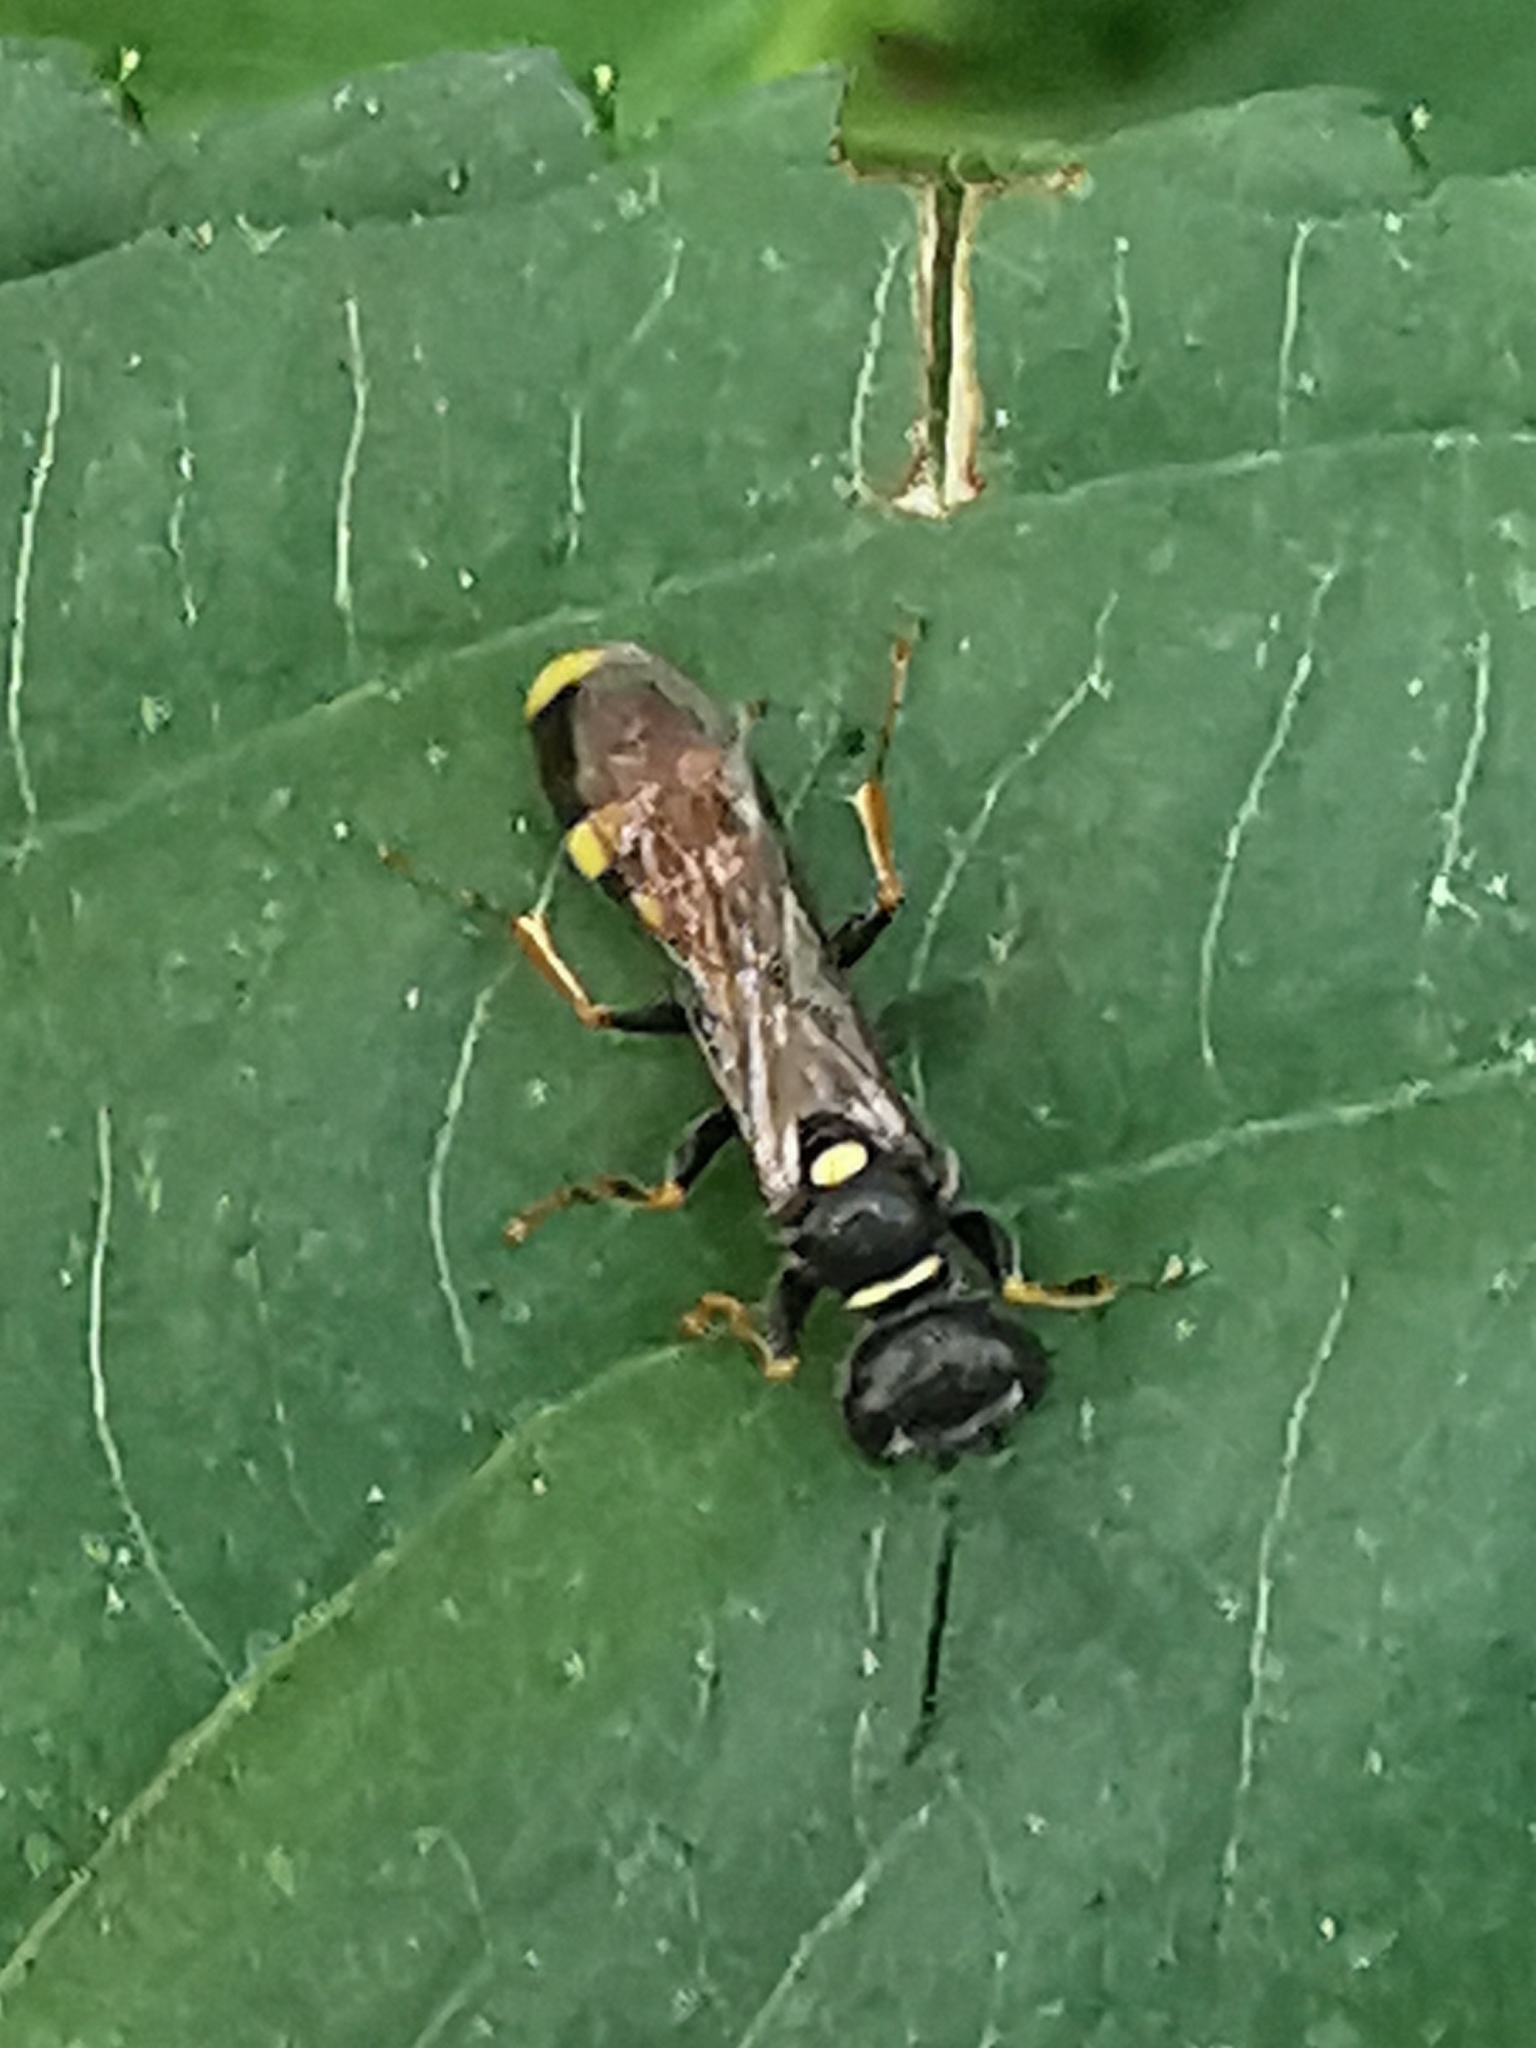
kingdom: Animalia
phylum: Arthropoda
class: Insecta
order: Hymenoptera
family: Crabronidae
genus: Mellinus
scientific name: Mellinus arvensis
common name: Field digger wasp
